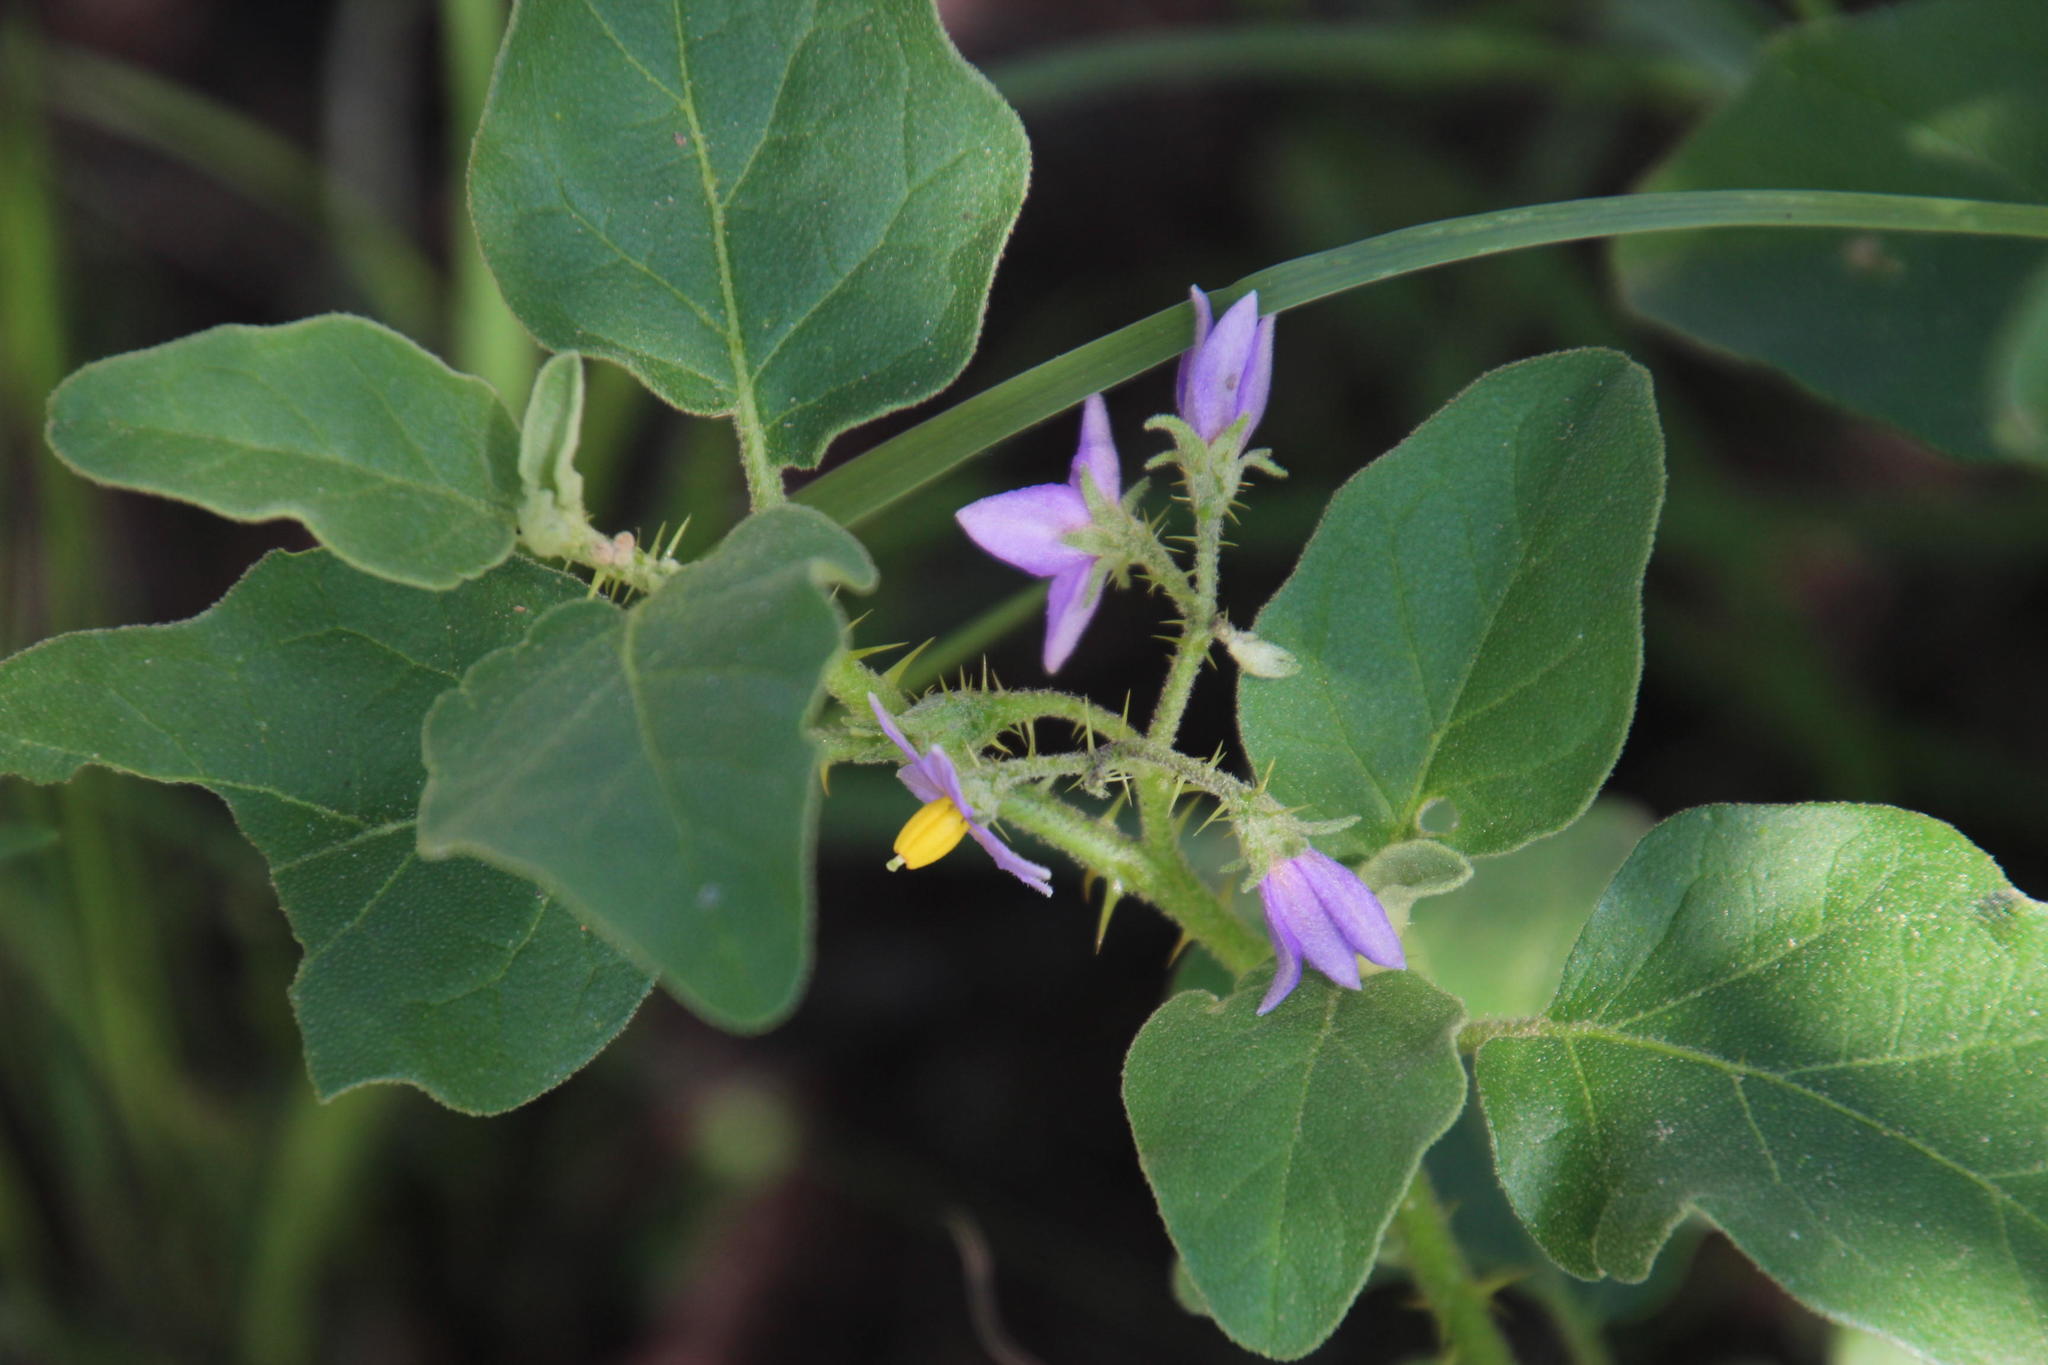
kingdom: Plantae
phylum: Tracheophyta
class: Magnoliopsida
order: Solanales
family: Solanaceae
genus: Solanum
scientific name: Solanum tomentosum
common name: Wild aubergine
